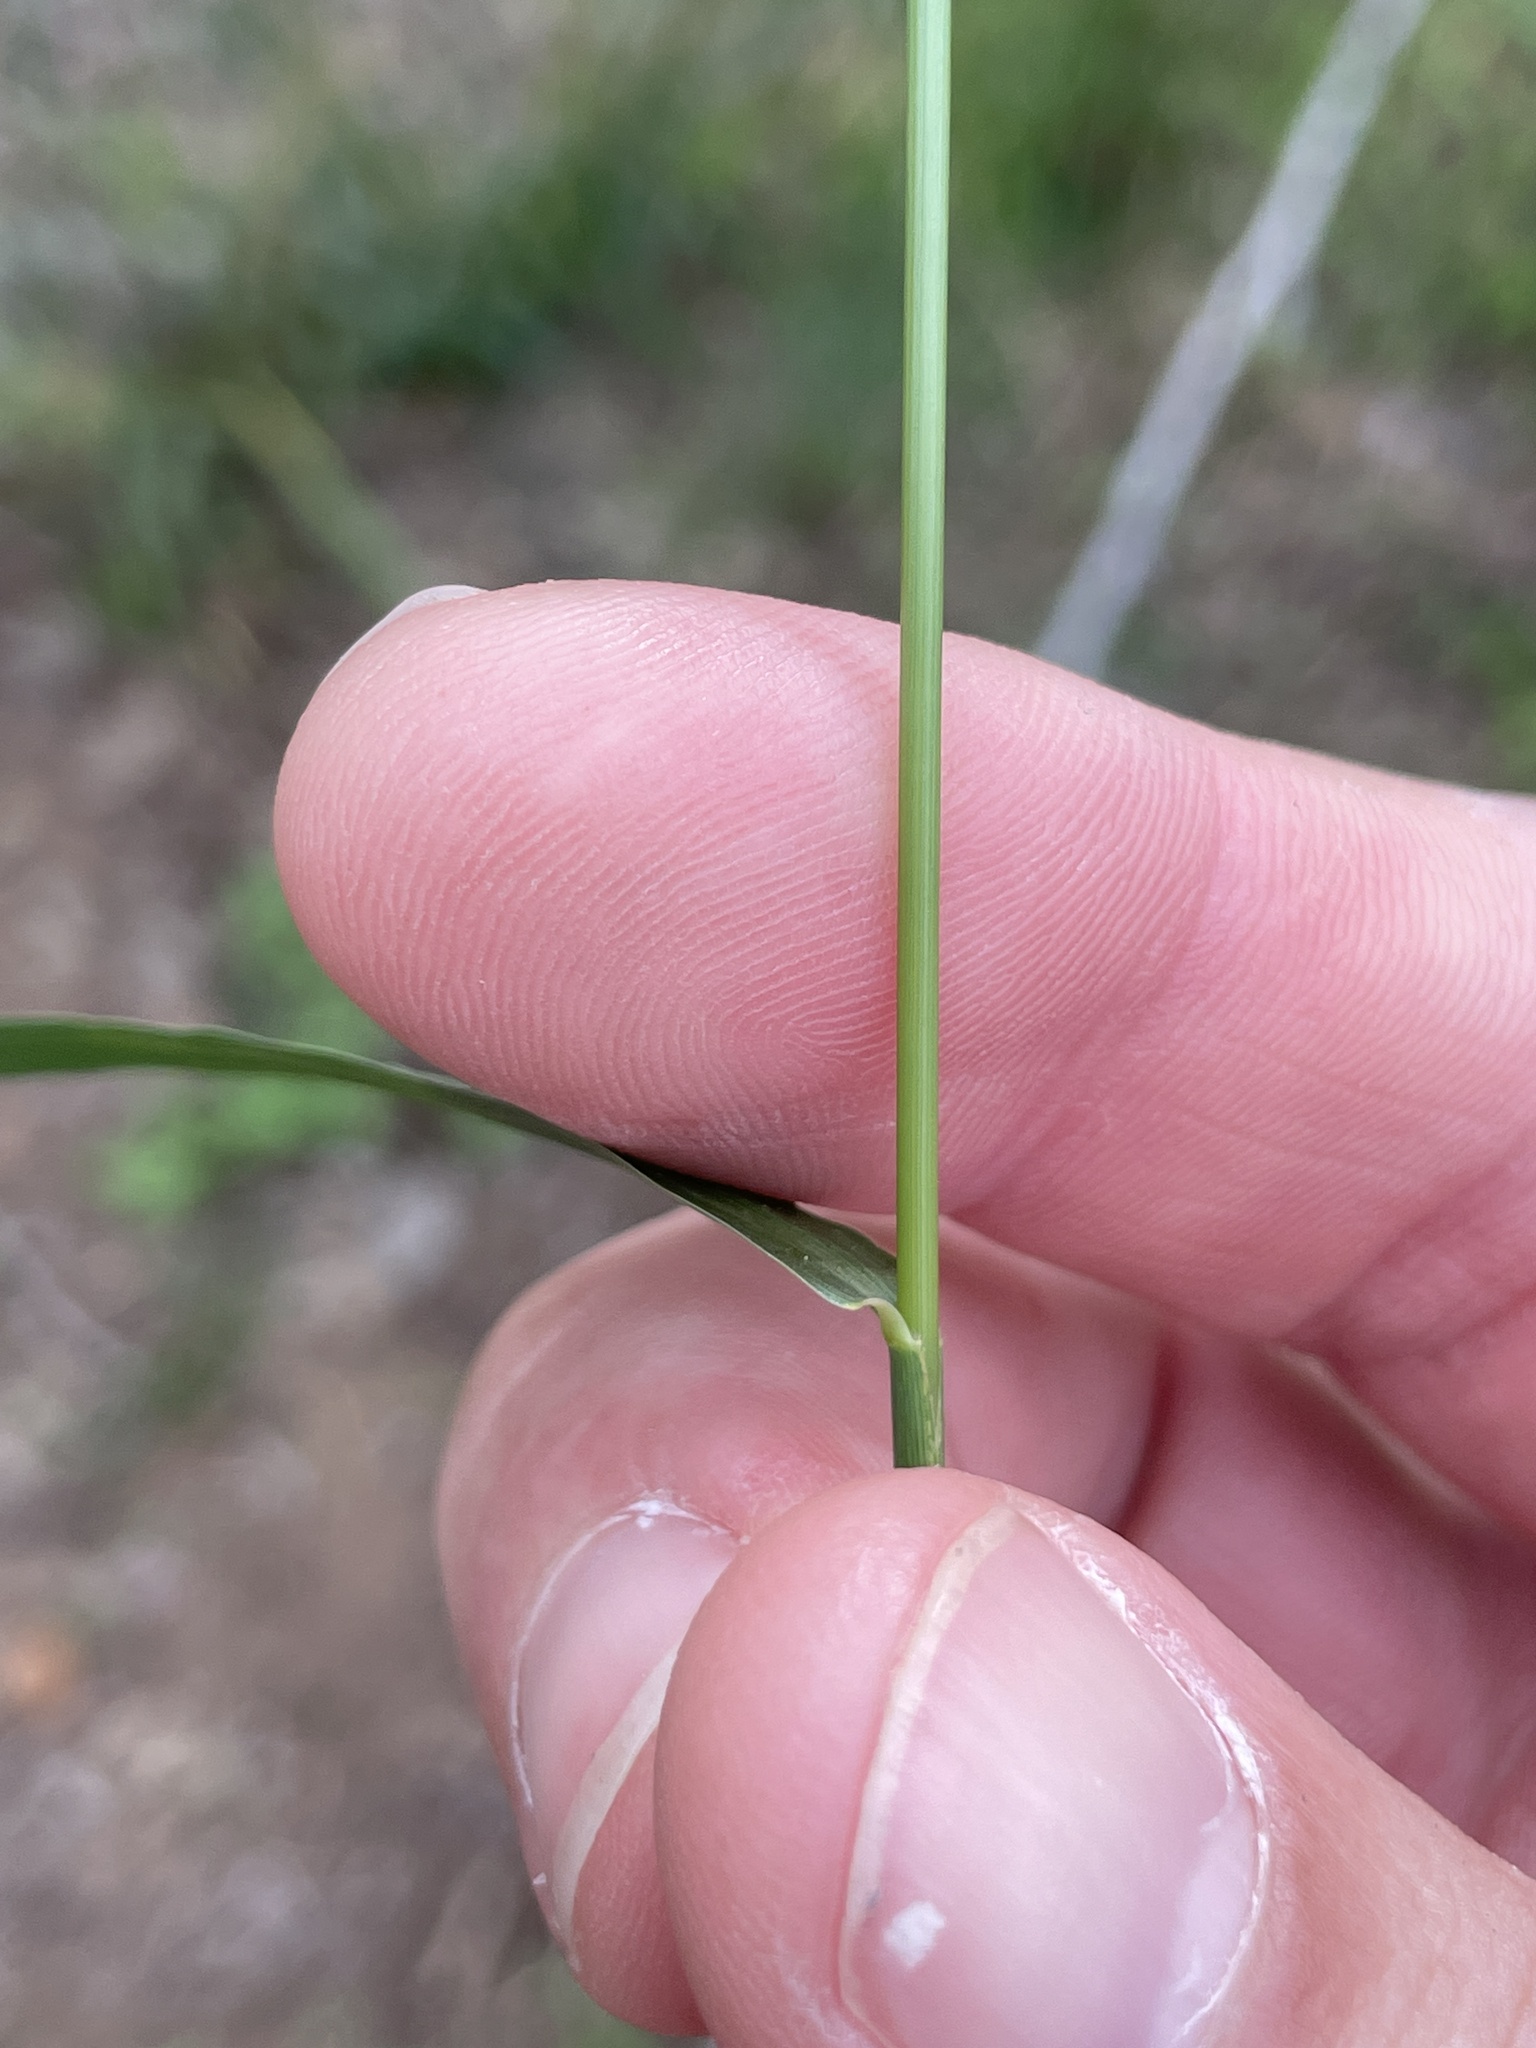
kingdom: Plantae
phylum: Tracheophyta
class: Liliopsida
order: Poales
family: Poaceae
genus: Setaria
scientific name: Setaria scheelei
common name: Southwestern bristle grass
